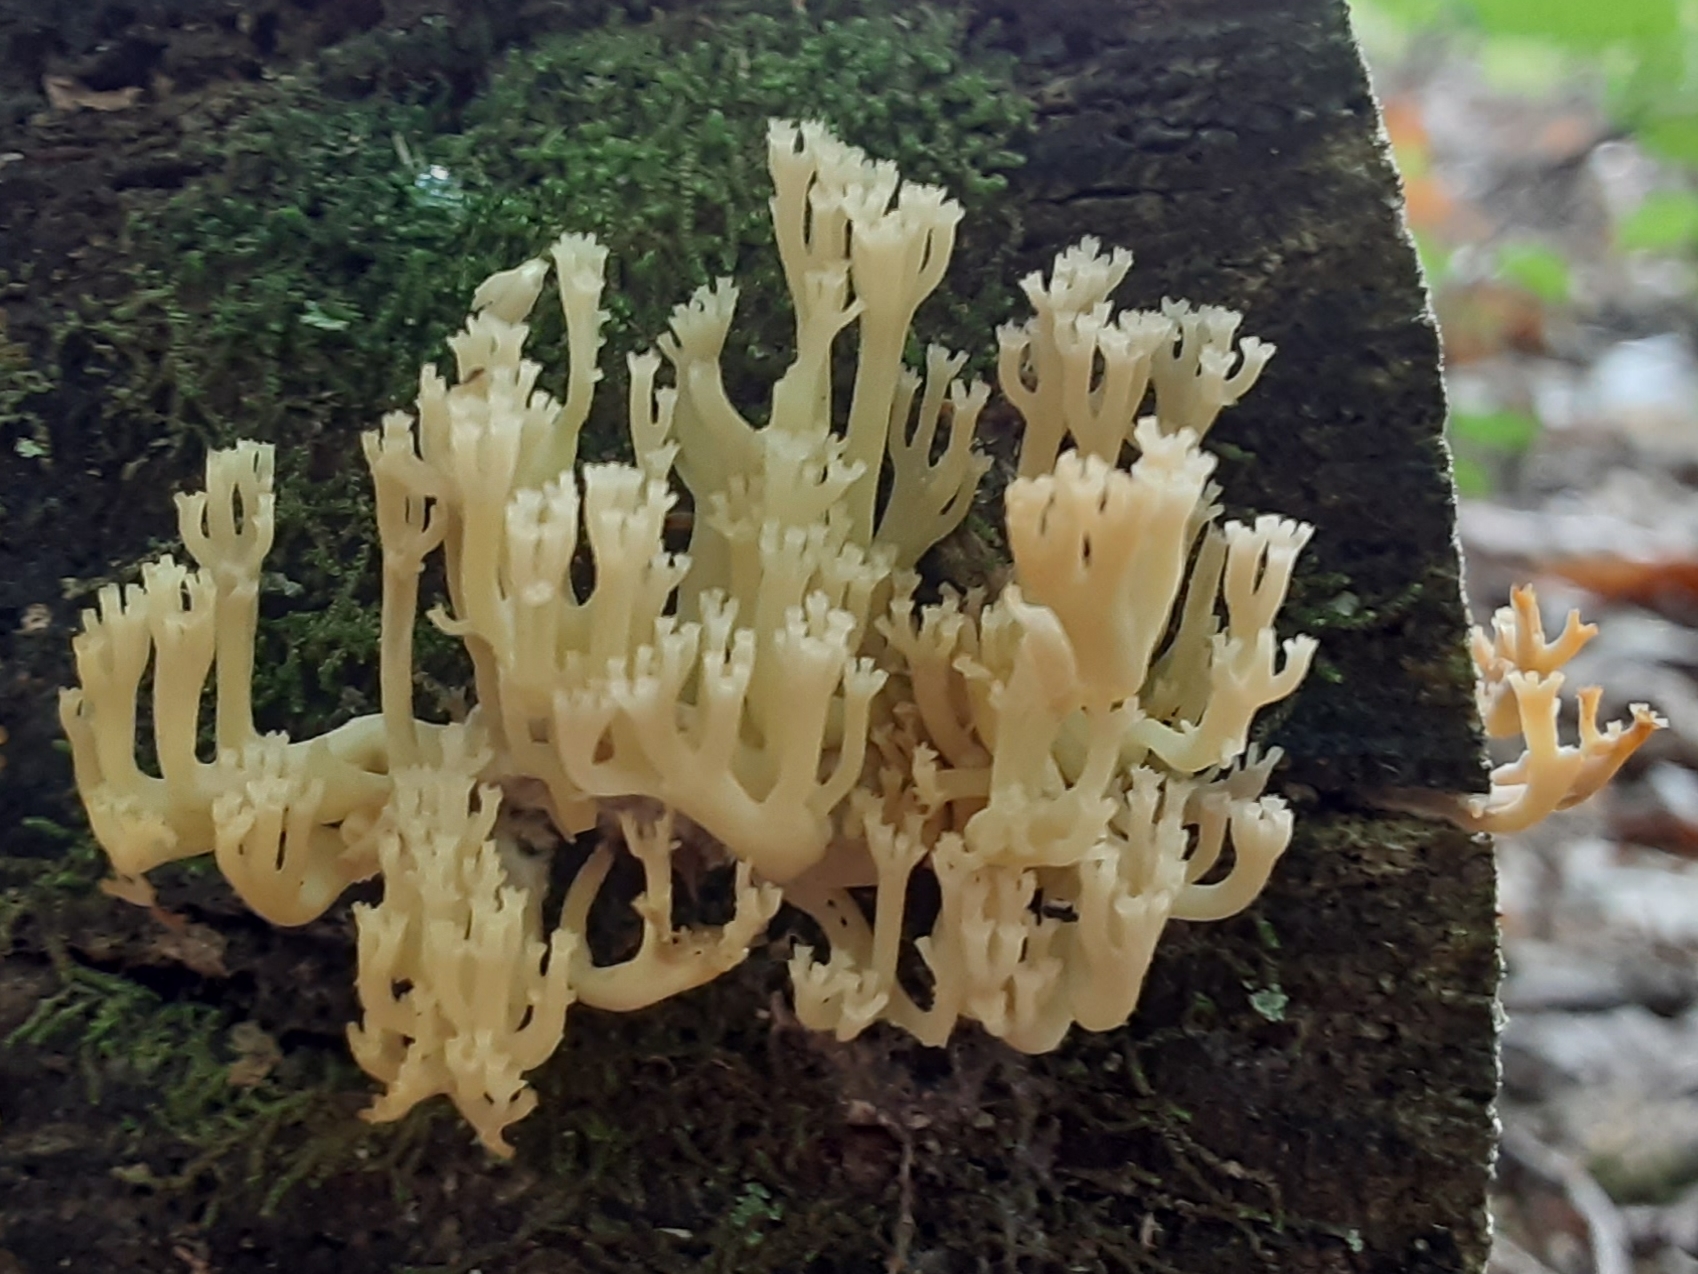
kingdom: Fungi
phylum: Basidiomycota
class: Agaricomycetes
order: Russulales
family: Auriscalpiaceae
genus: Artomyces
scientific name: Artomyces pyxidatus
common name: Crown-tipped coral fungus
